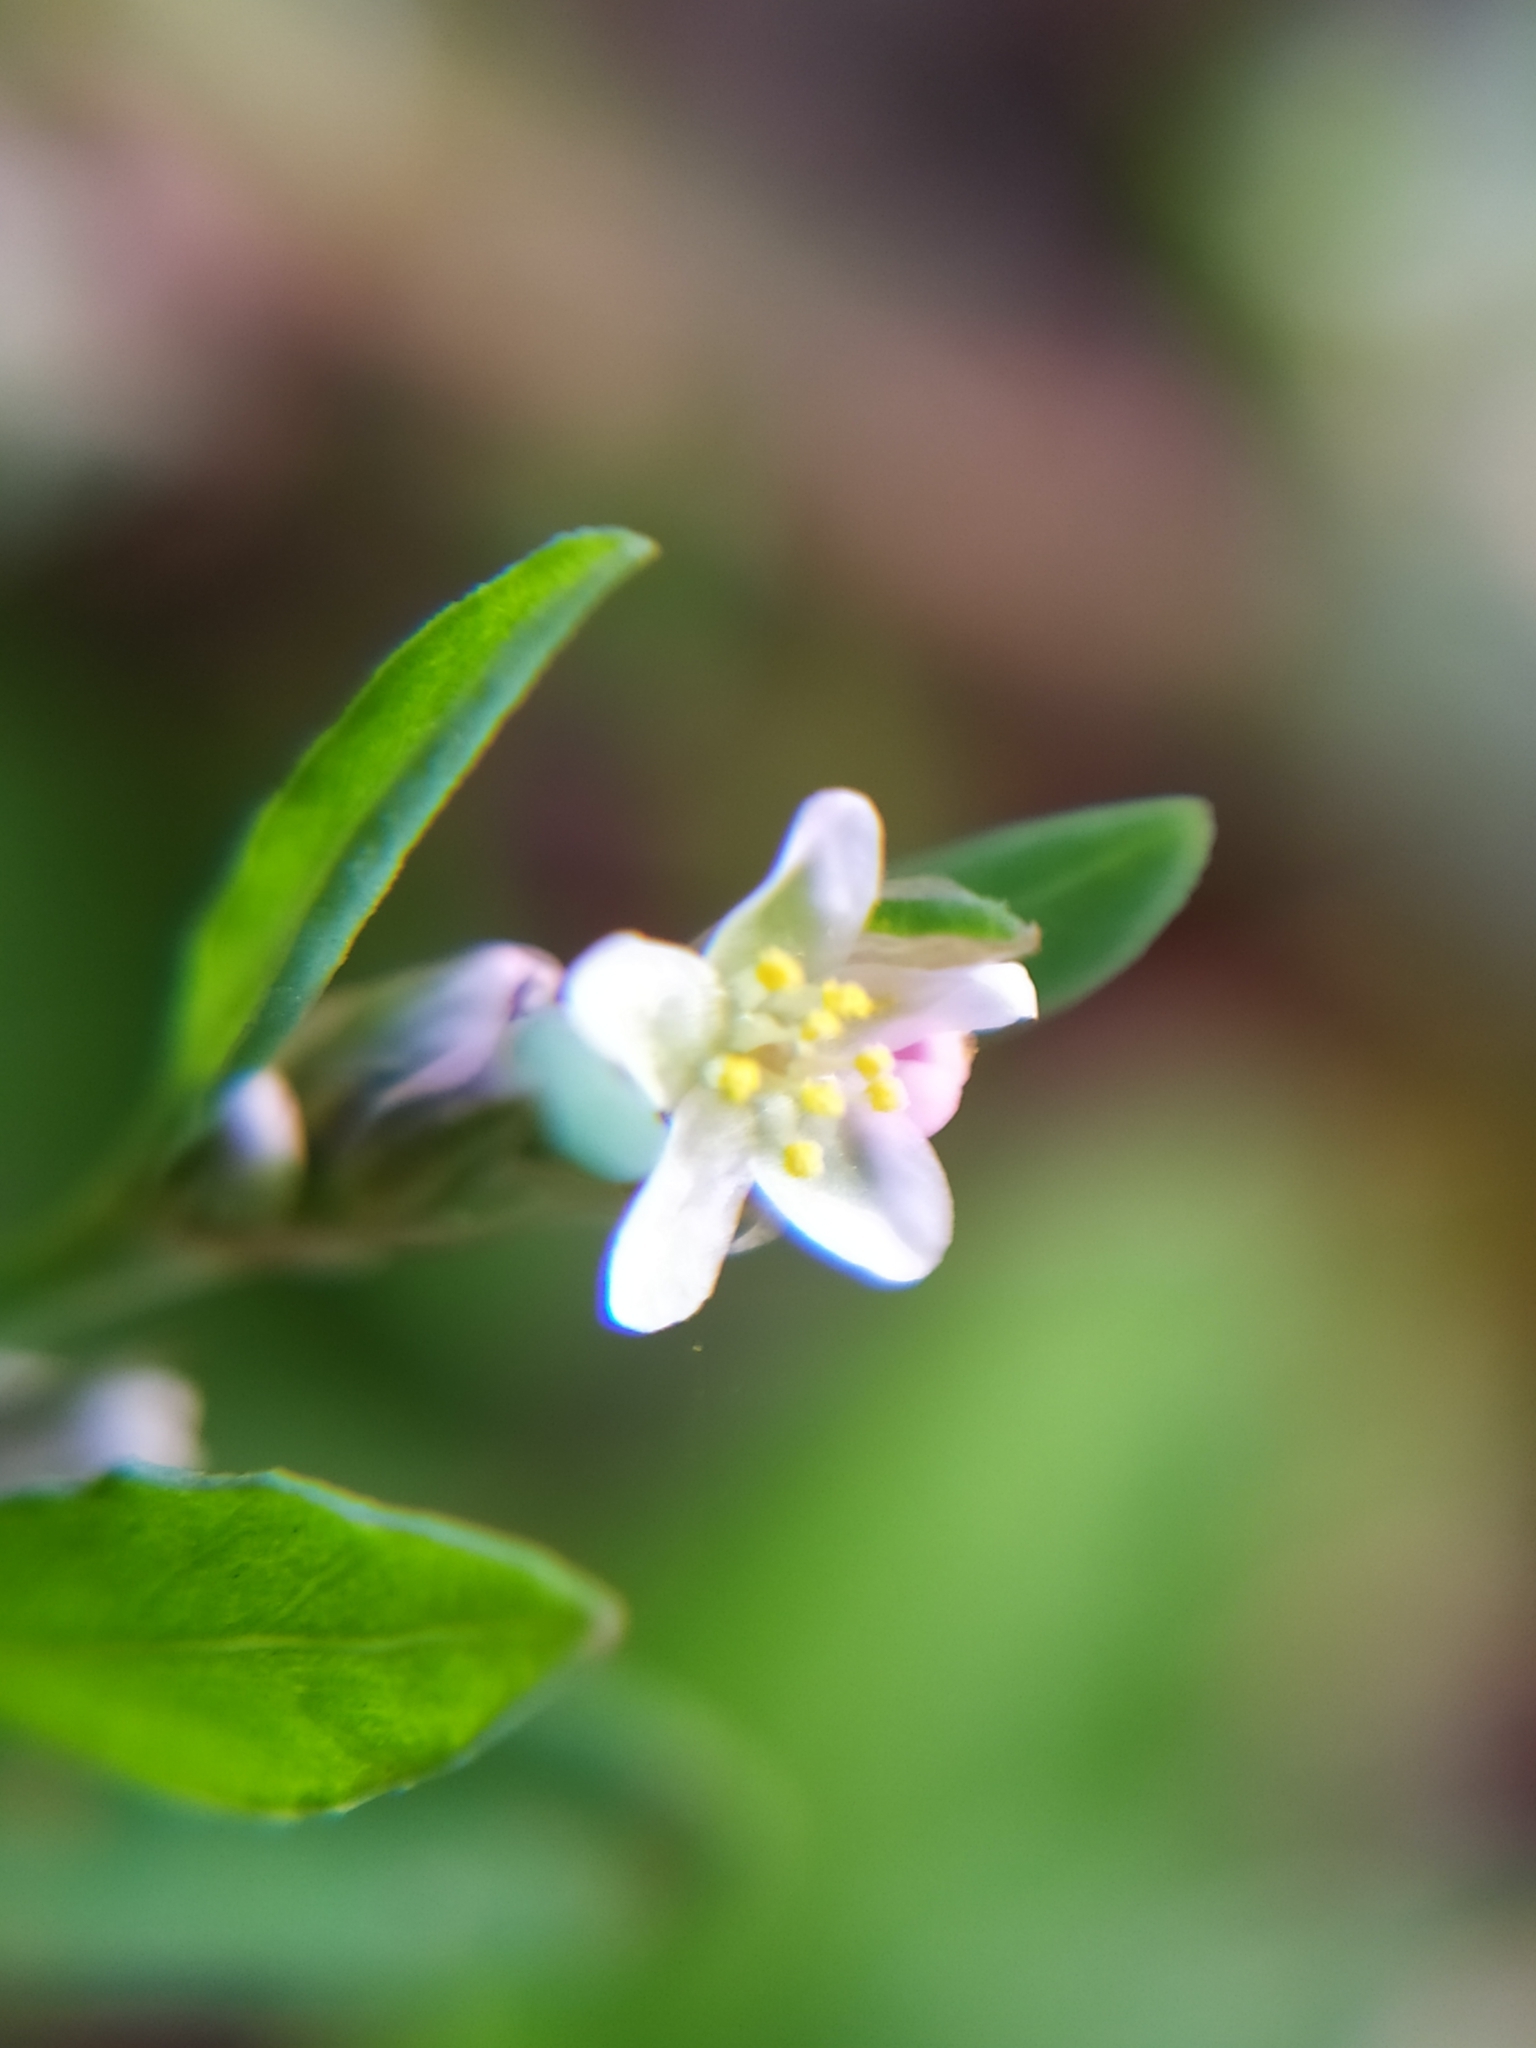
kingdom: Plantae
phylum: Tracheophyta
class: Magnoliopsida
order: Caryophyllales
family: Polygonaceae
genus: Polygonum
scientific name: Polygonum aviculare
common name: Prostrate knotweed
